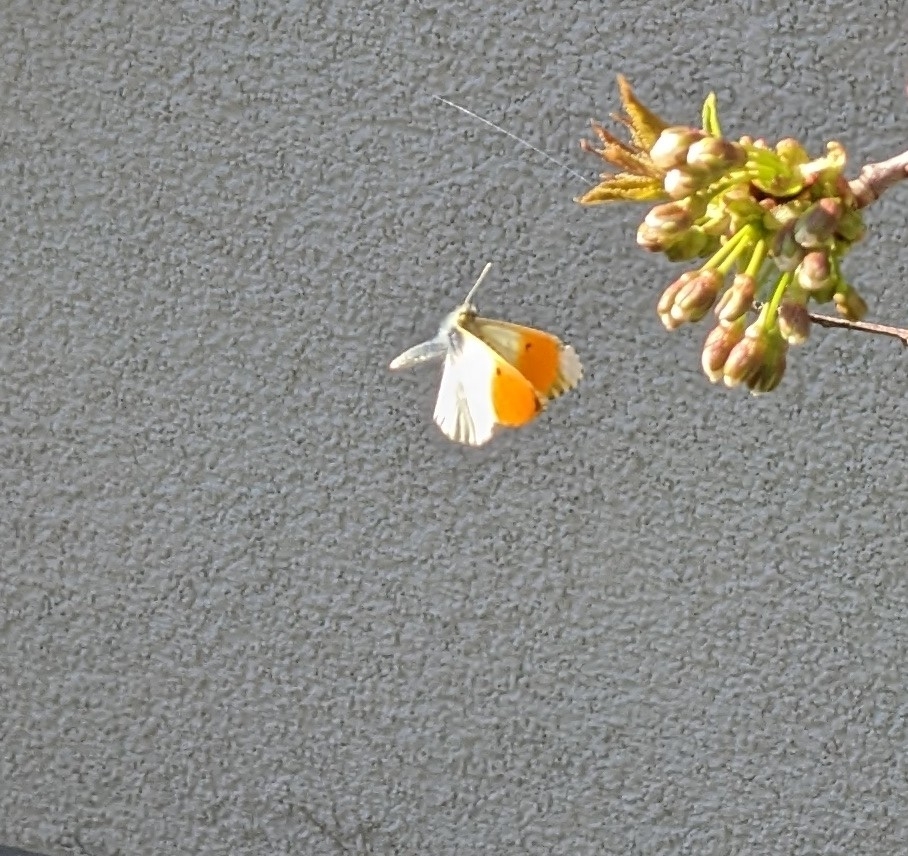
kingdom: Animalia
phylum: Arthropoda
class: Insecta
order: Lepidoptera
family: Pieridae
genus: Anthocharis
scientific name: Anthocharis cardamines
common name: Orange-tip
